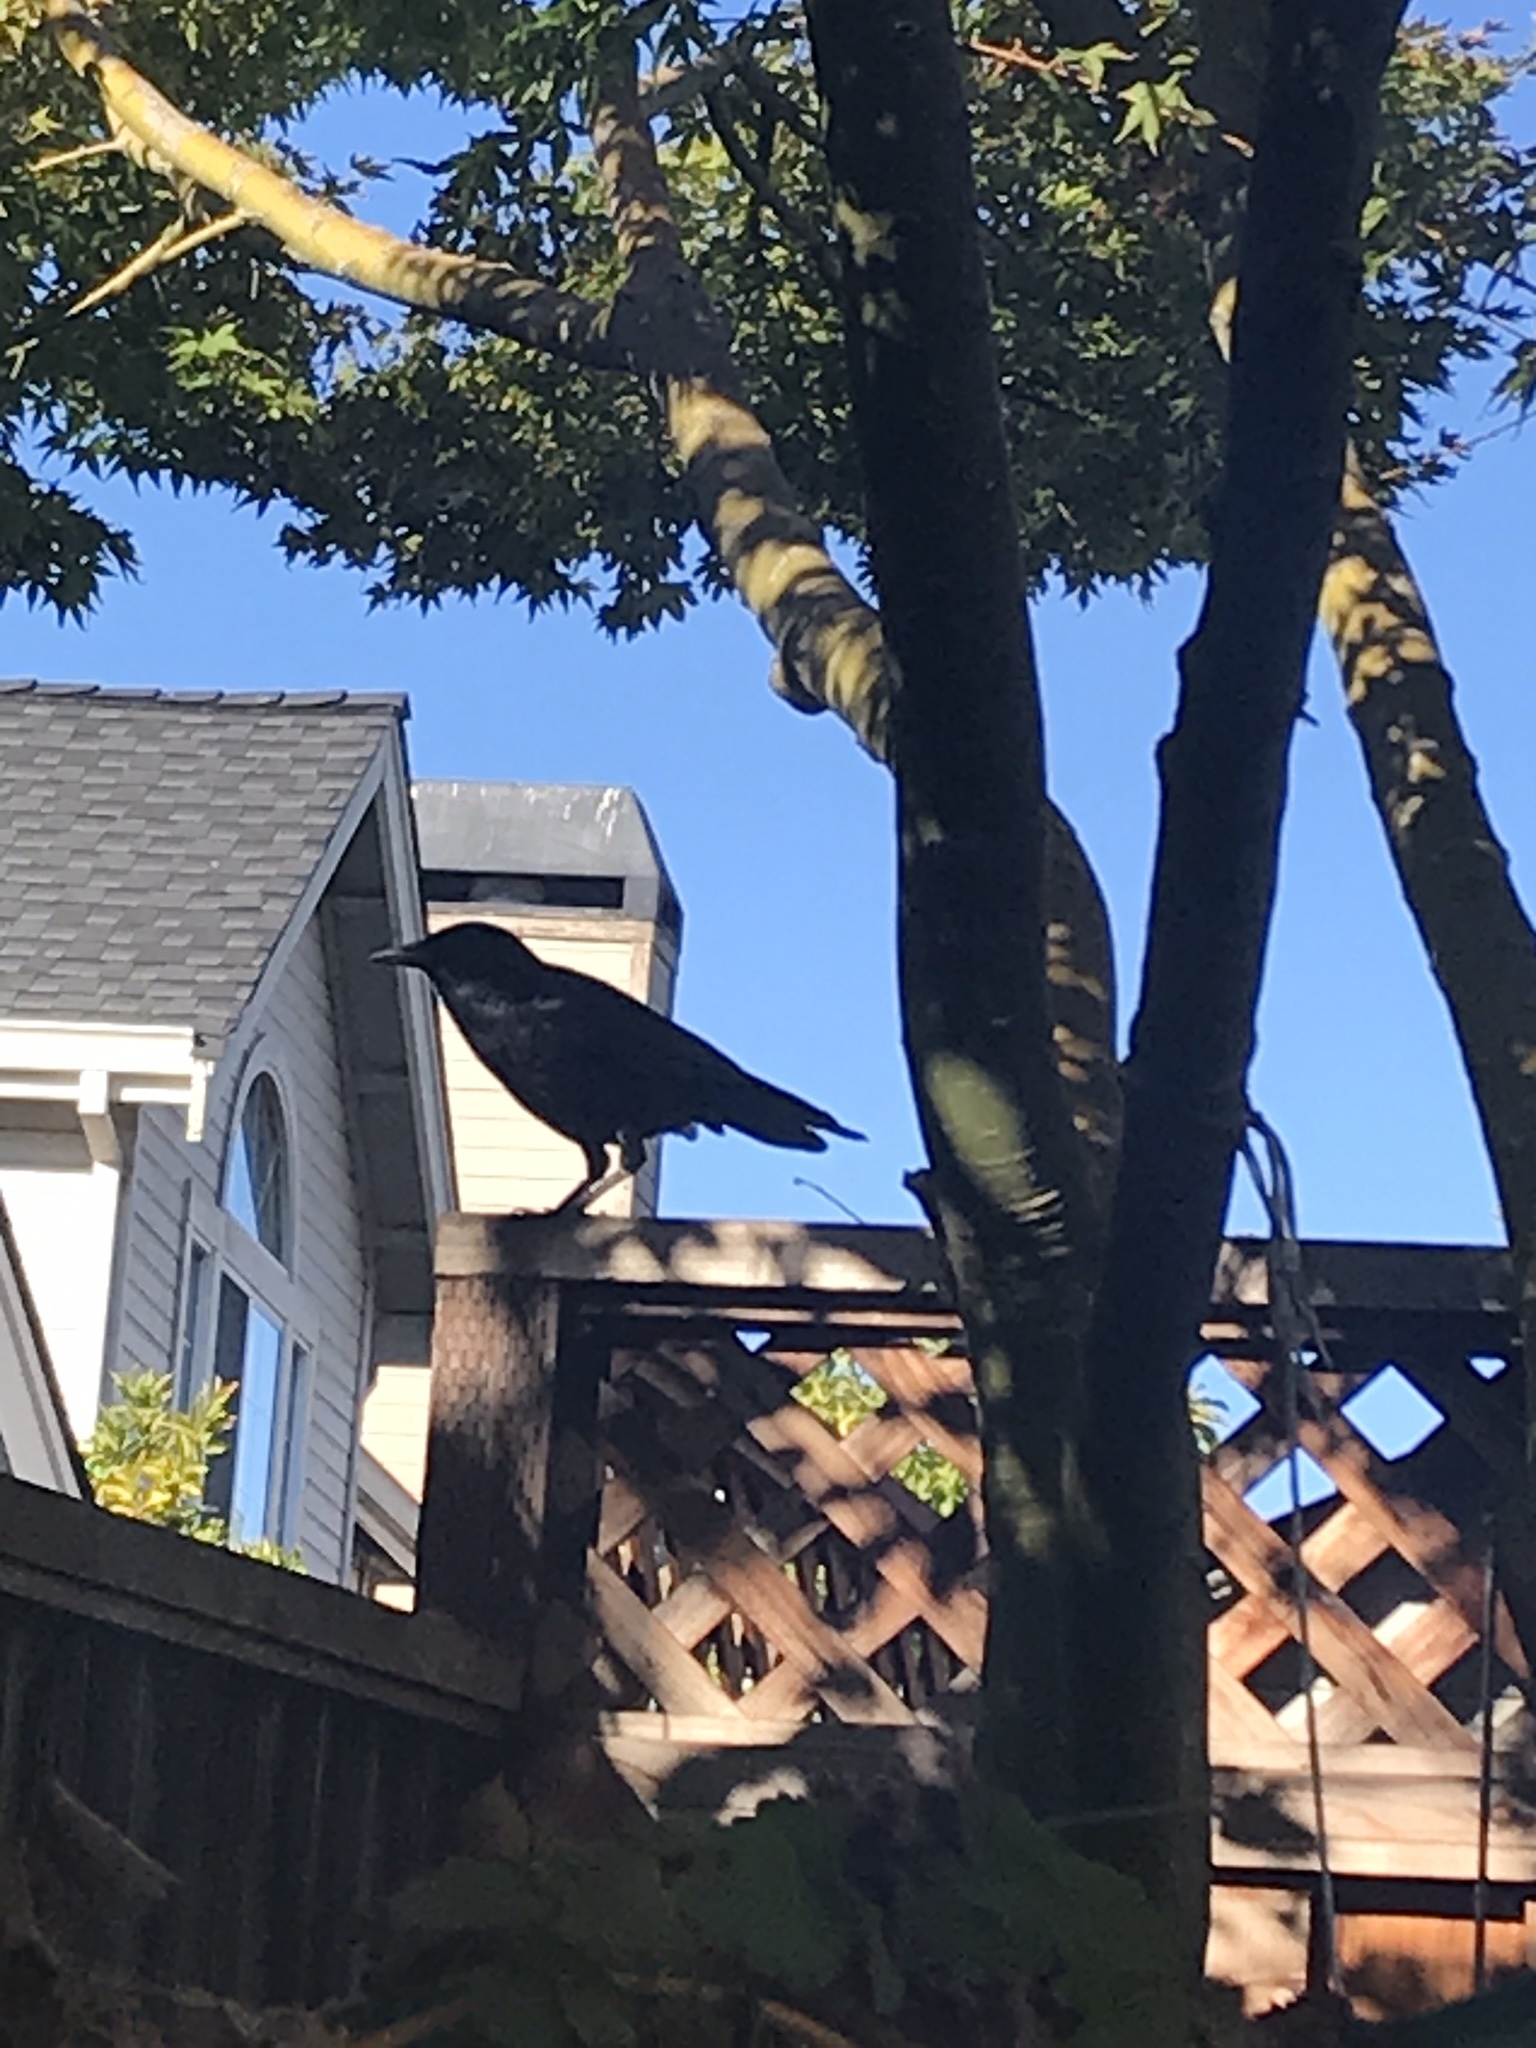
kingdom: Animalia
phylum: Chordata
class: Aves
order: Passeriformes
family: Corvidae
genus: Corvus
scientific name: Corvus brachyrhynchos
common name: American crow
